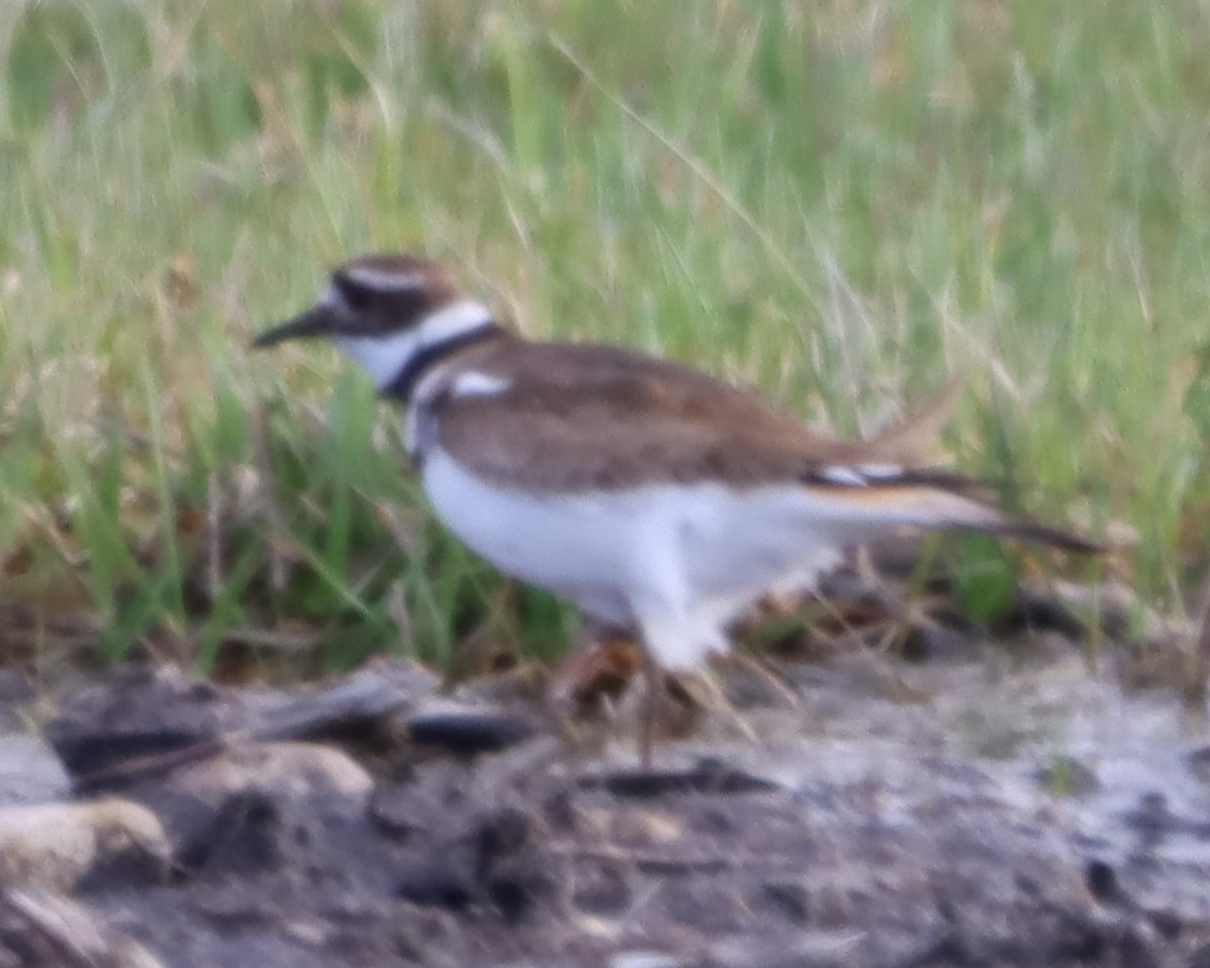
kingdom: Animalia
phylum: Chordata
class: Aves
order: Charadriiformes
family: Charadriidae
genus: Charadrius
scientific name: Charadrius vociferus
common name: Killdeer
